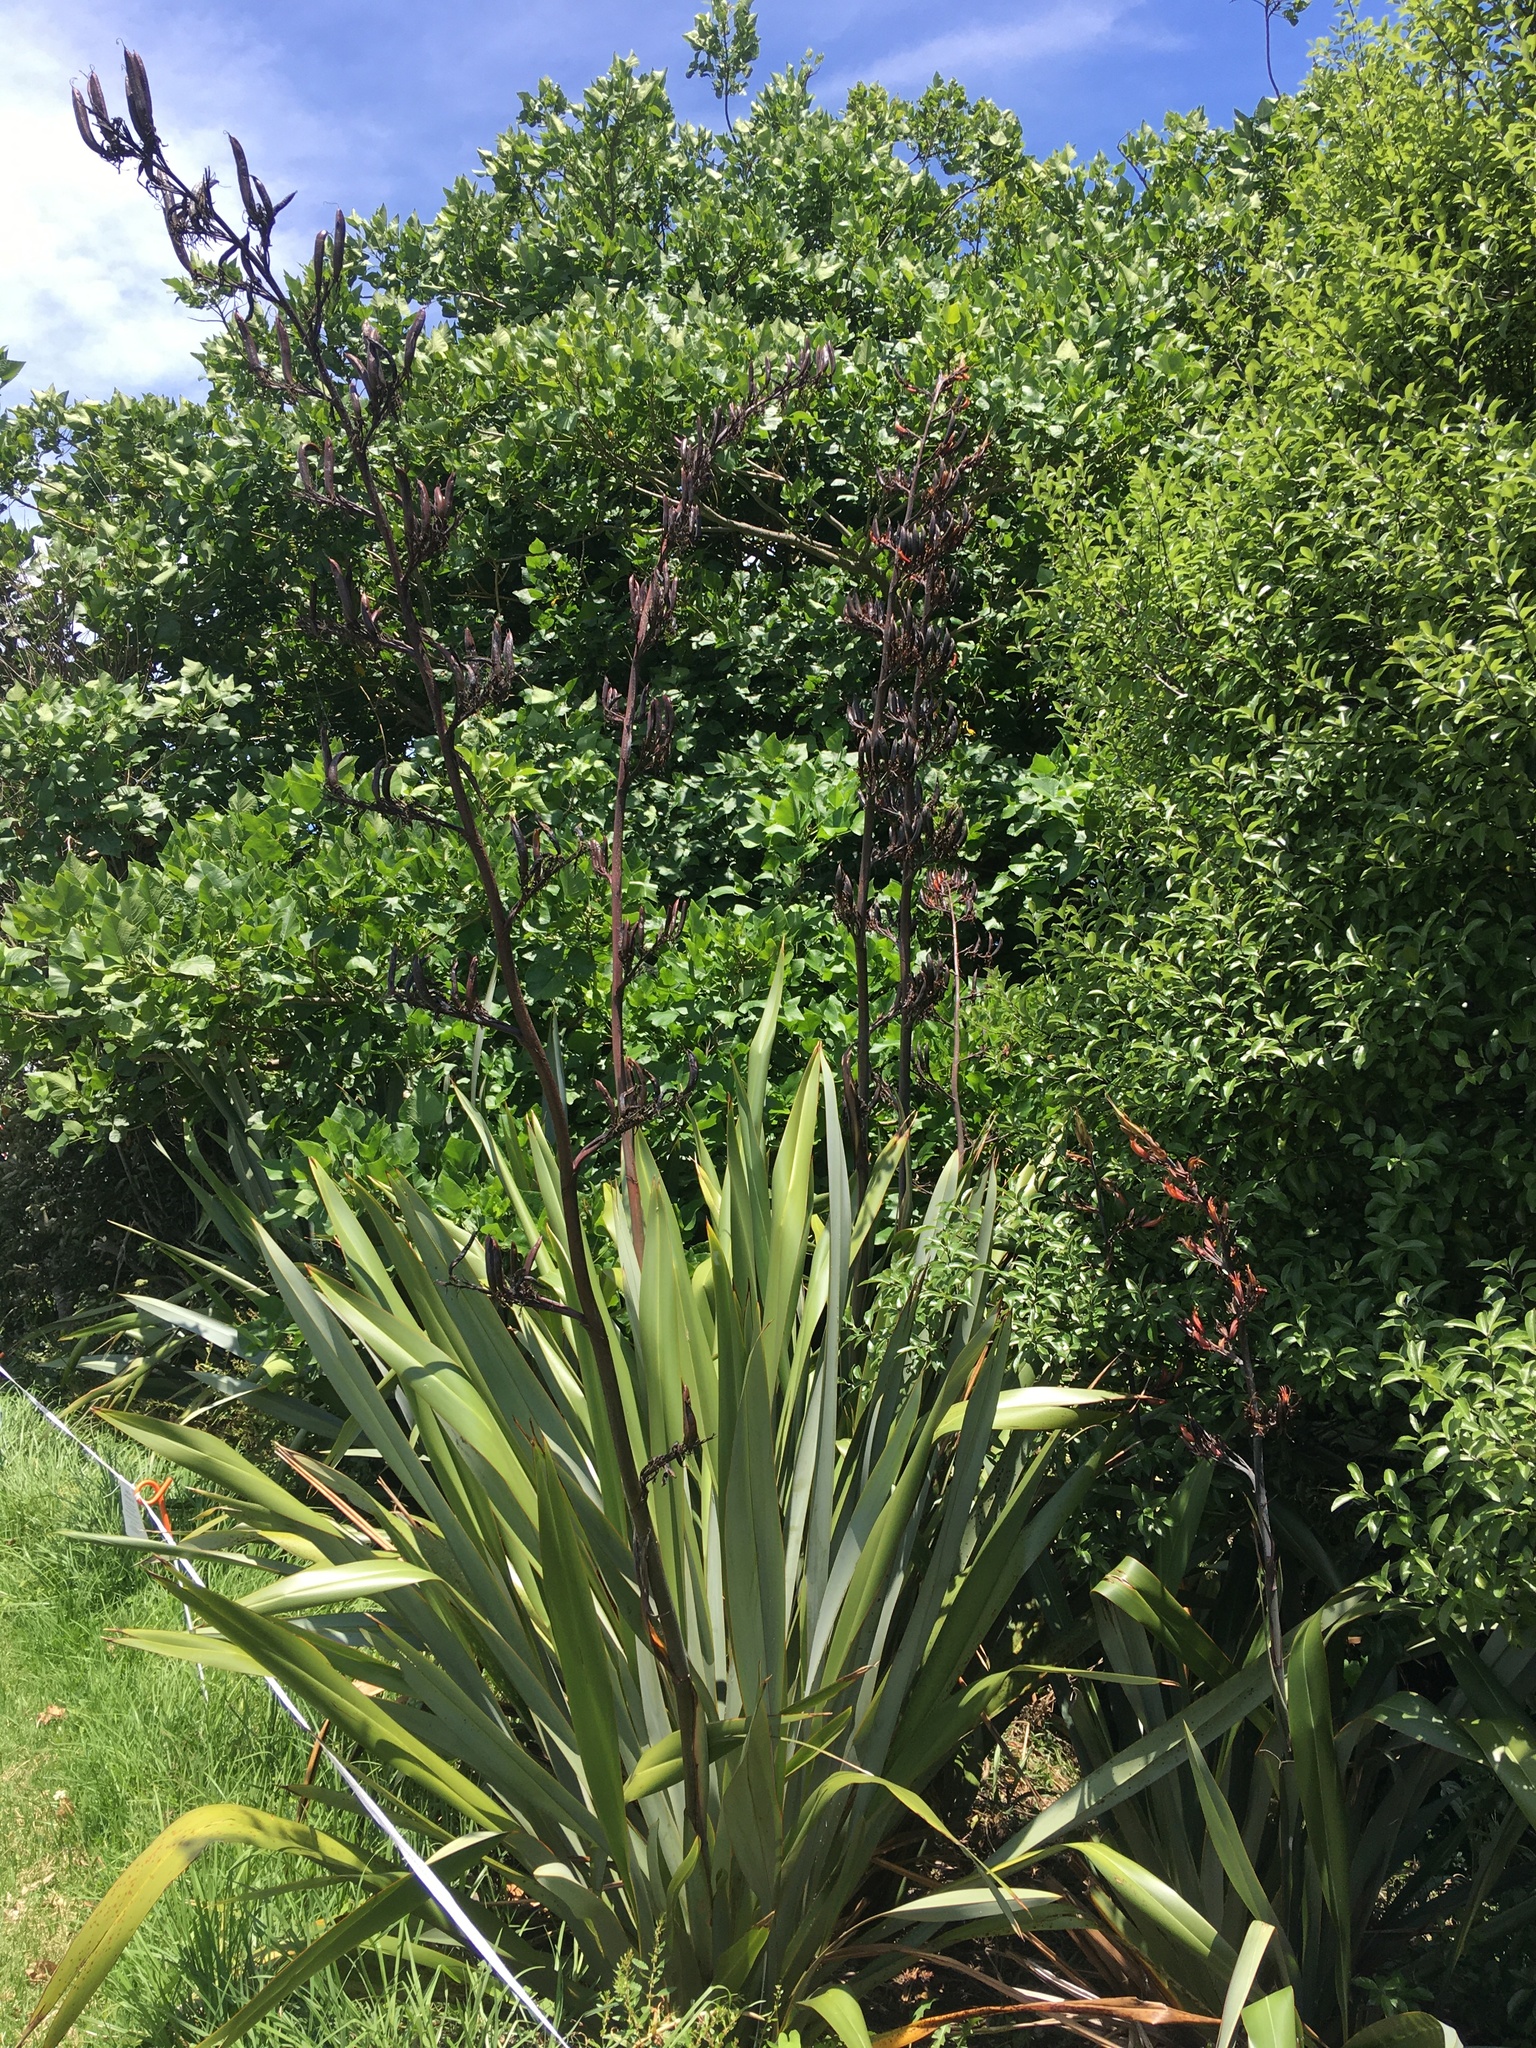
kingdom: Plantae
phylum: Tracheophyta
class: Liliopsida
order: Asparagales
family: Asphodelaceae
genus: Phormium
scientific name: Phormium tenax
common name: New zealand flax
